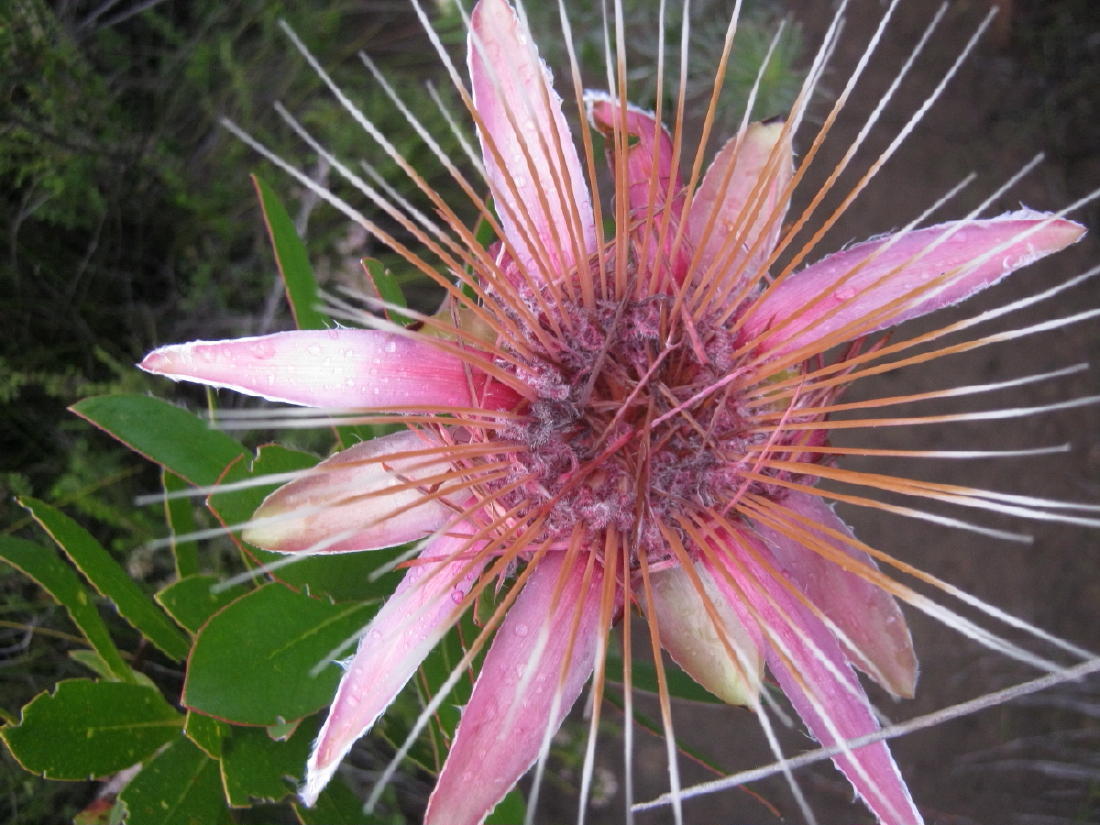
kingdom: Plantae
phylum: Tracheophyta
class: Magnoliopsida
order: Proteales
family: Proteaceae
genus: Protea
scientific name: Protea aurea
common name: Shuttlecock sugarbush
